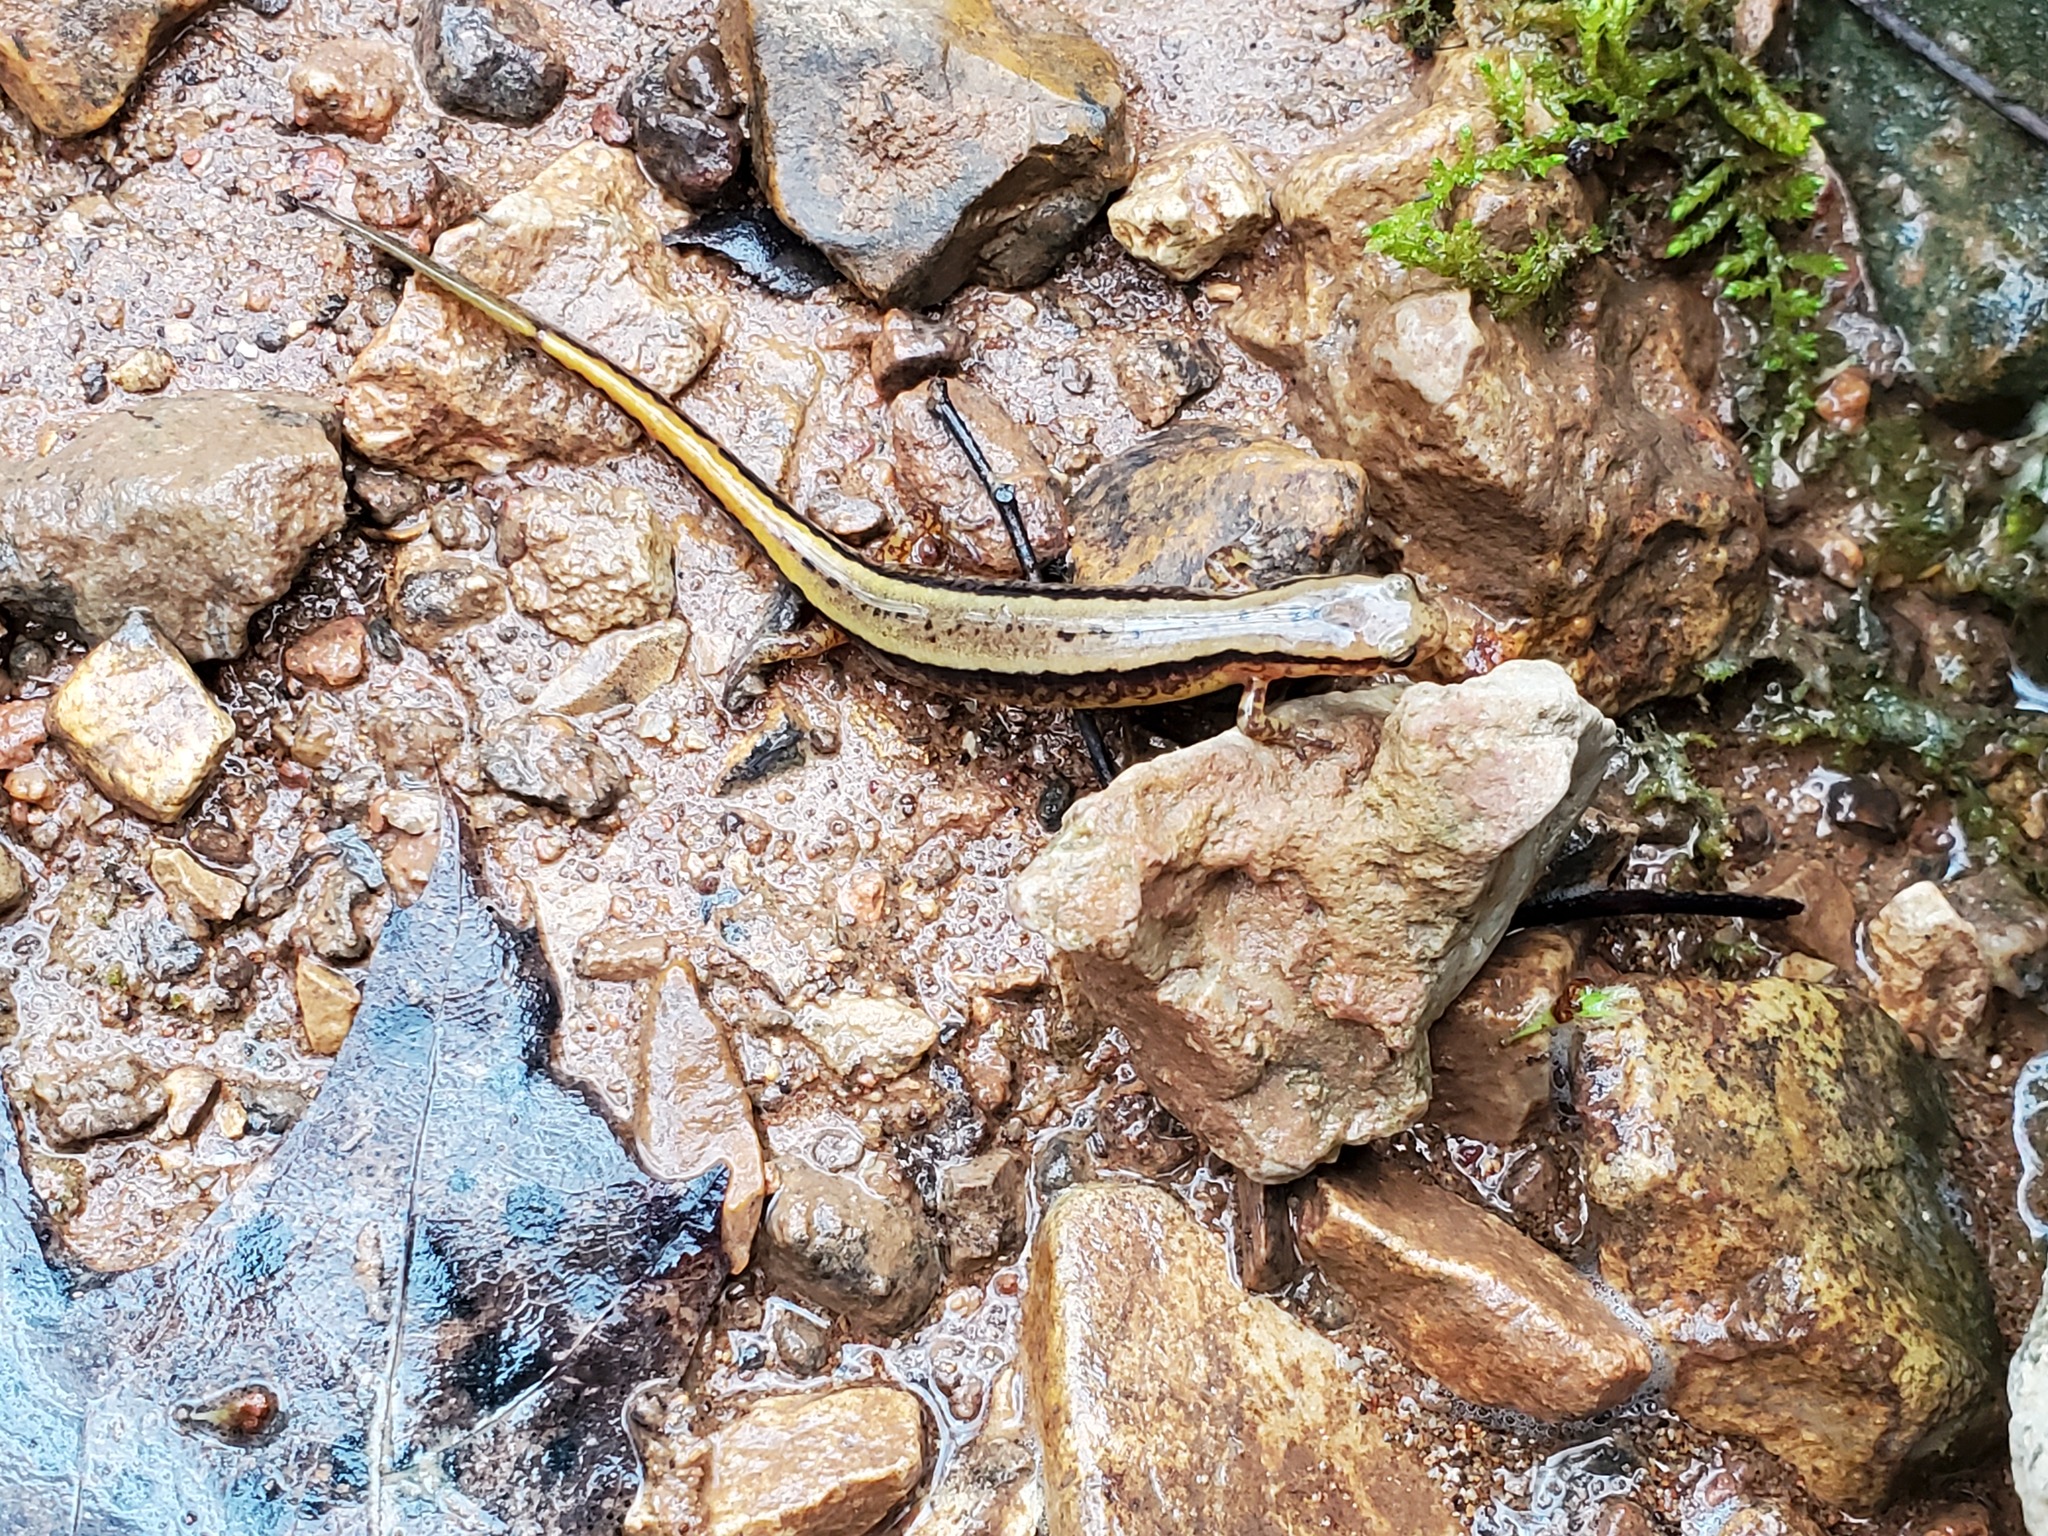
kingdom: Animalia
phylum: Chordata
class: Amphibia
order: Caudata
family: Plethodontidae
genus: Eurycea
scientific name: Eurycea cirrigera
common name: Southern two-lined salamander
